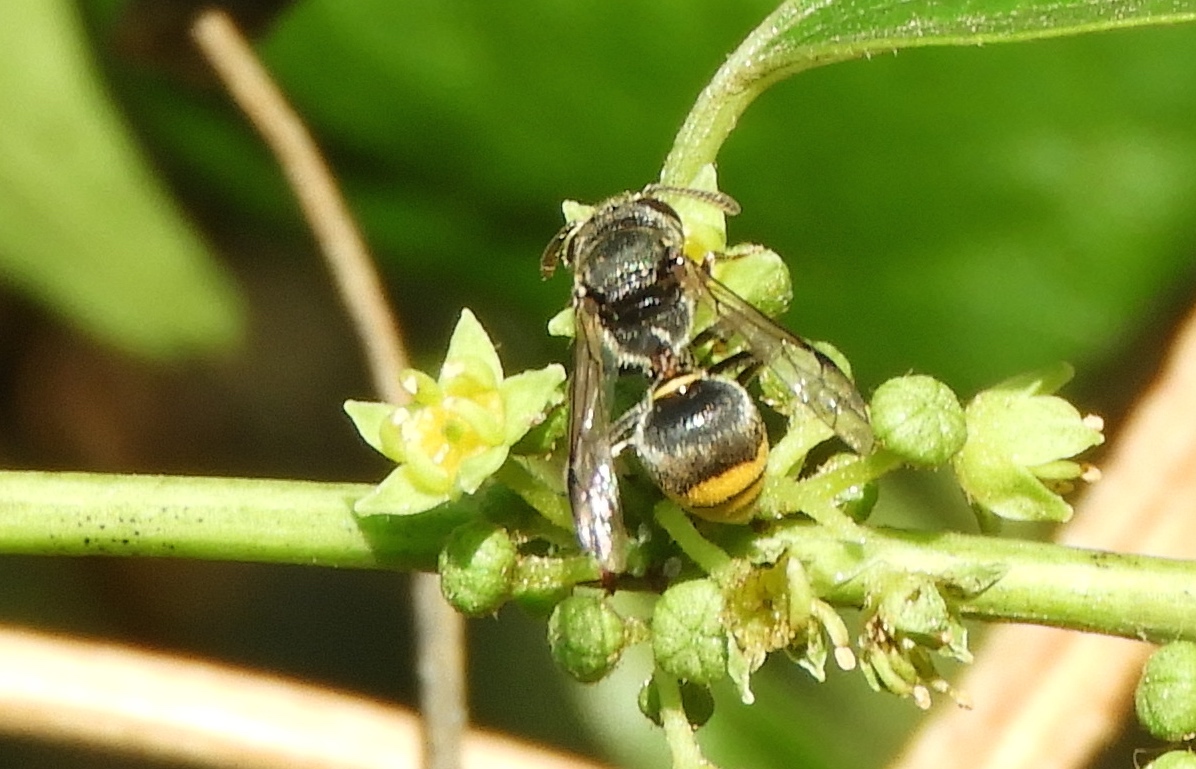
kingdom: Animalia
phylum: Arthropoda
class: Insecta
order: Hymenoptera
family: Vespidae
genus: Brachygastra
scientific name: Brachygastra azteca
